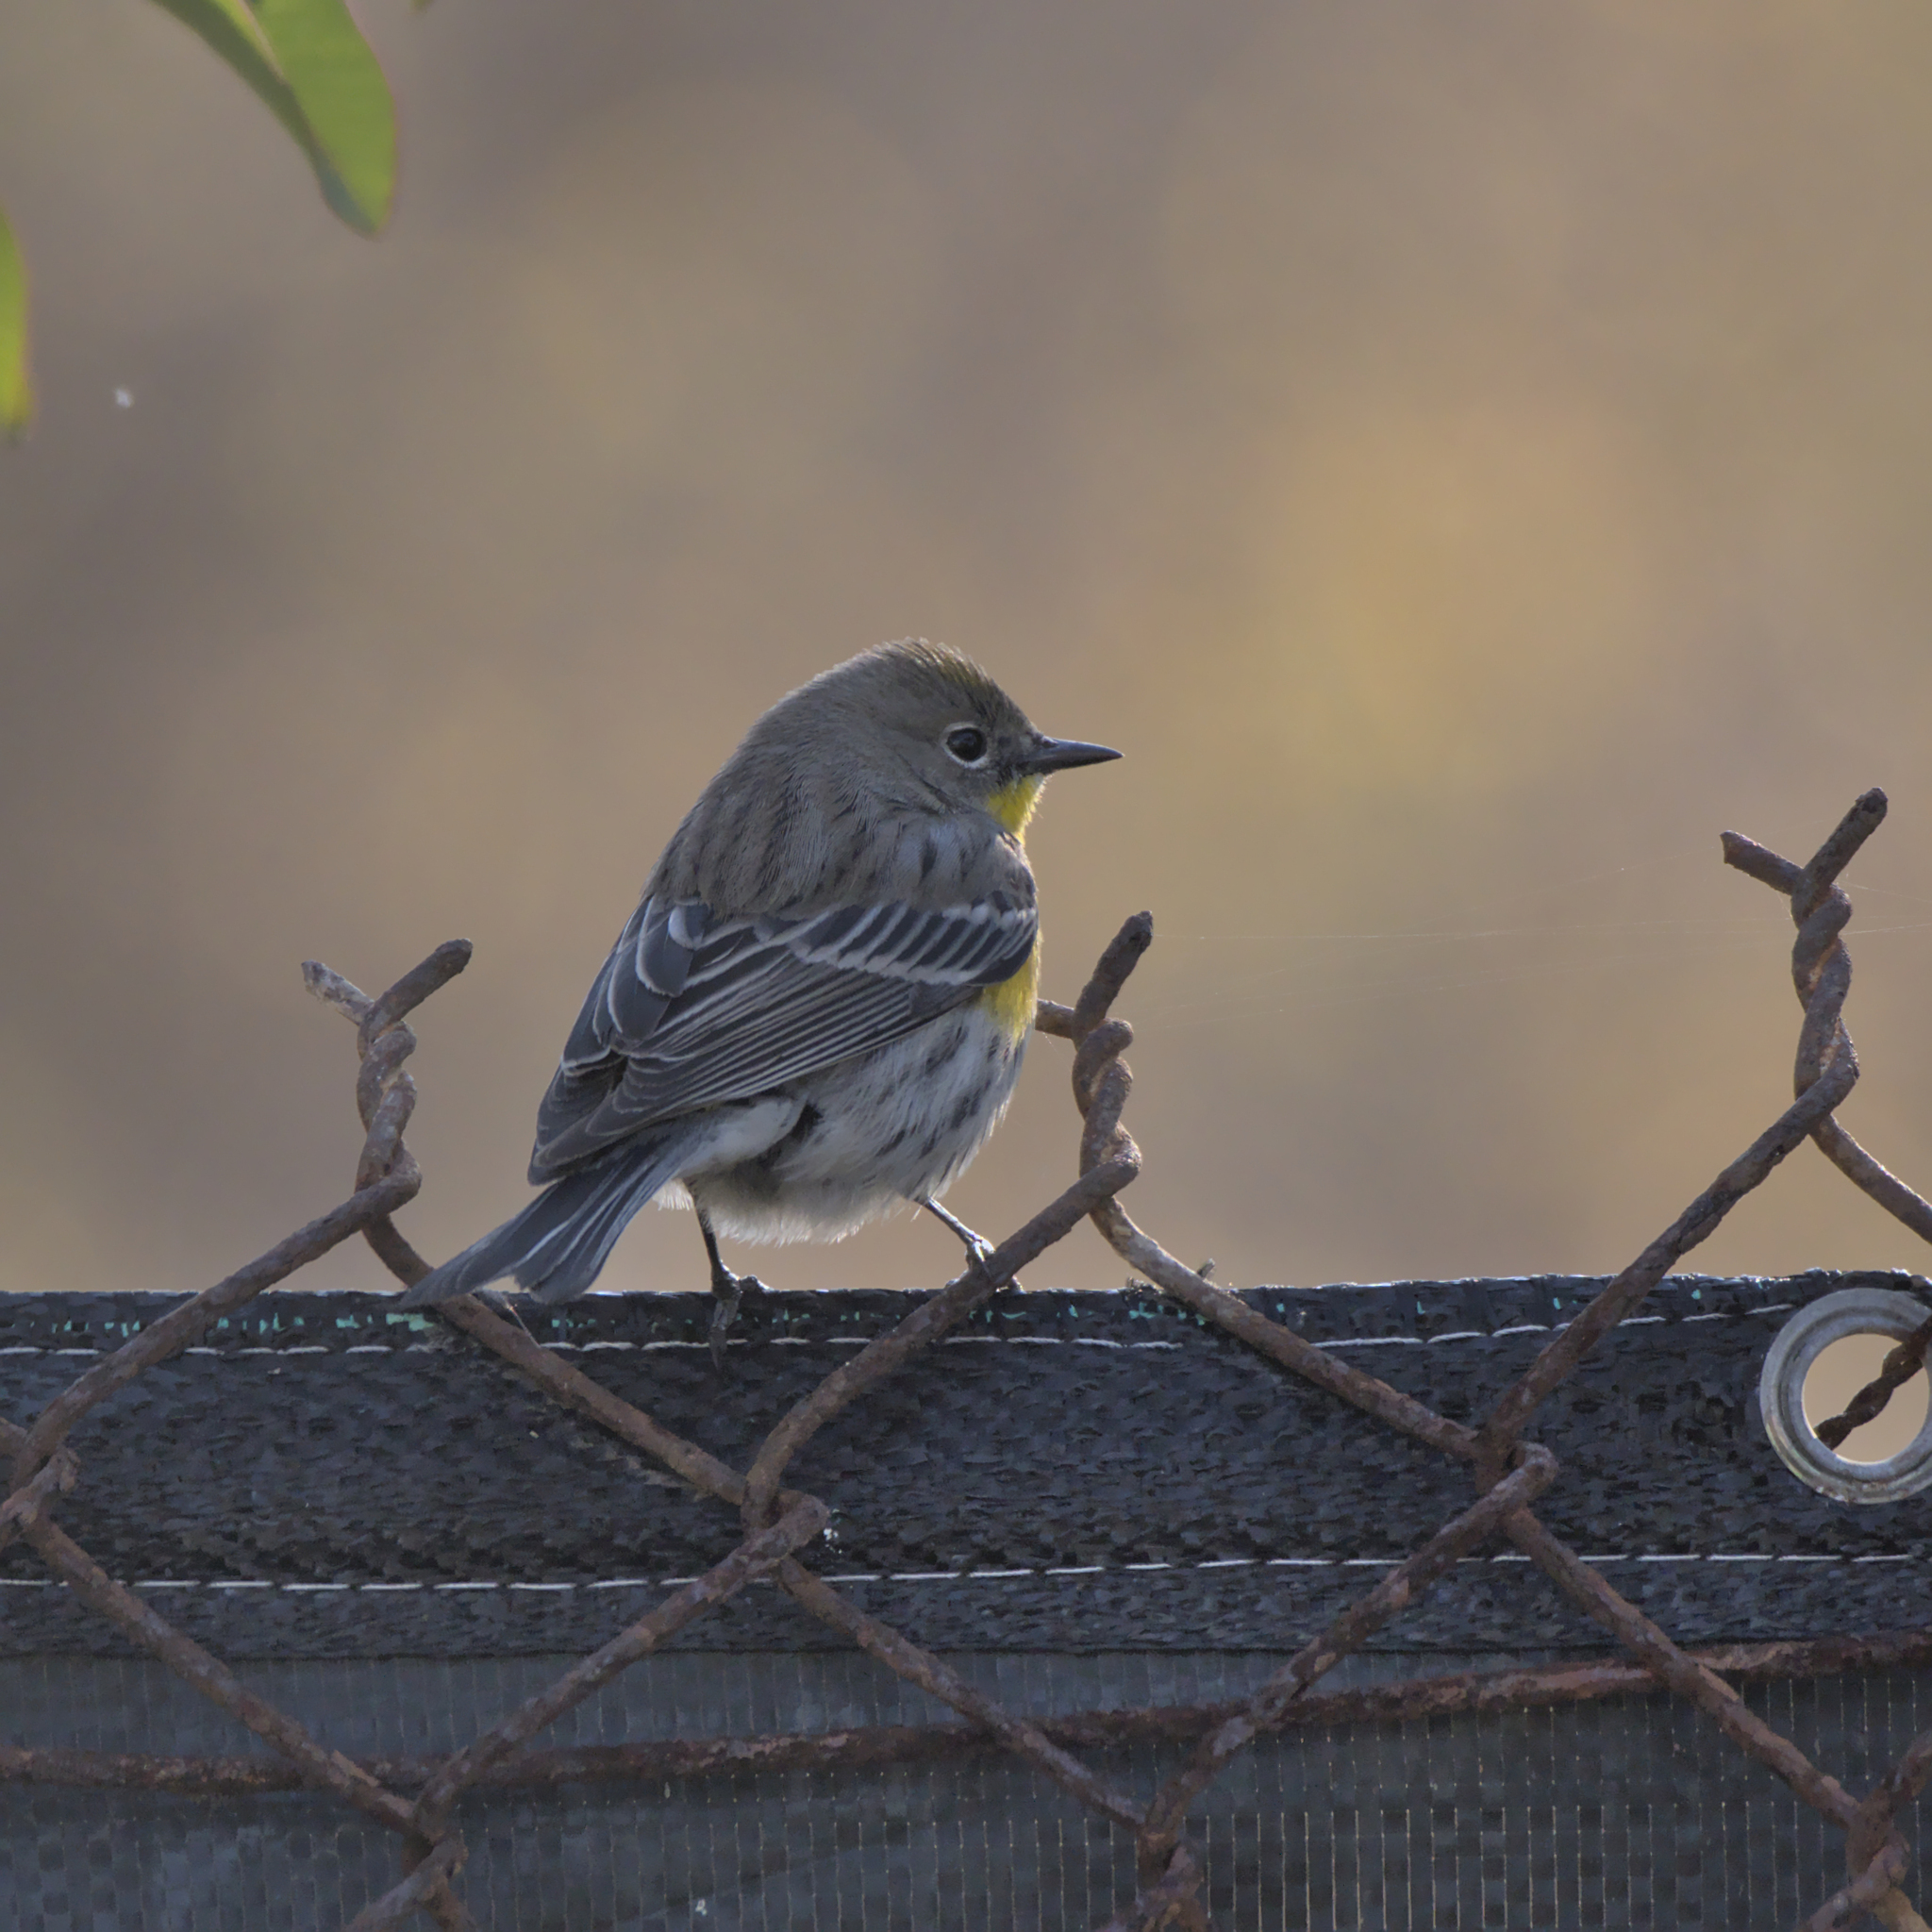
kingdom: Animalia
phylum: Chordata
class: Aves
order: Passeriformes
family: Parulidae
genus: Setophaga
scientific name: Setophaga coronata
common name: Myrtle warbler
